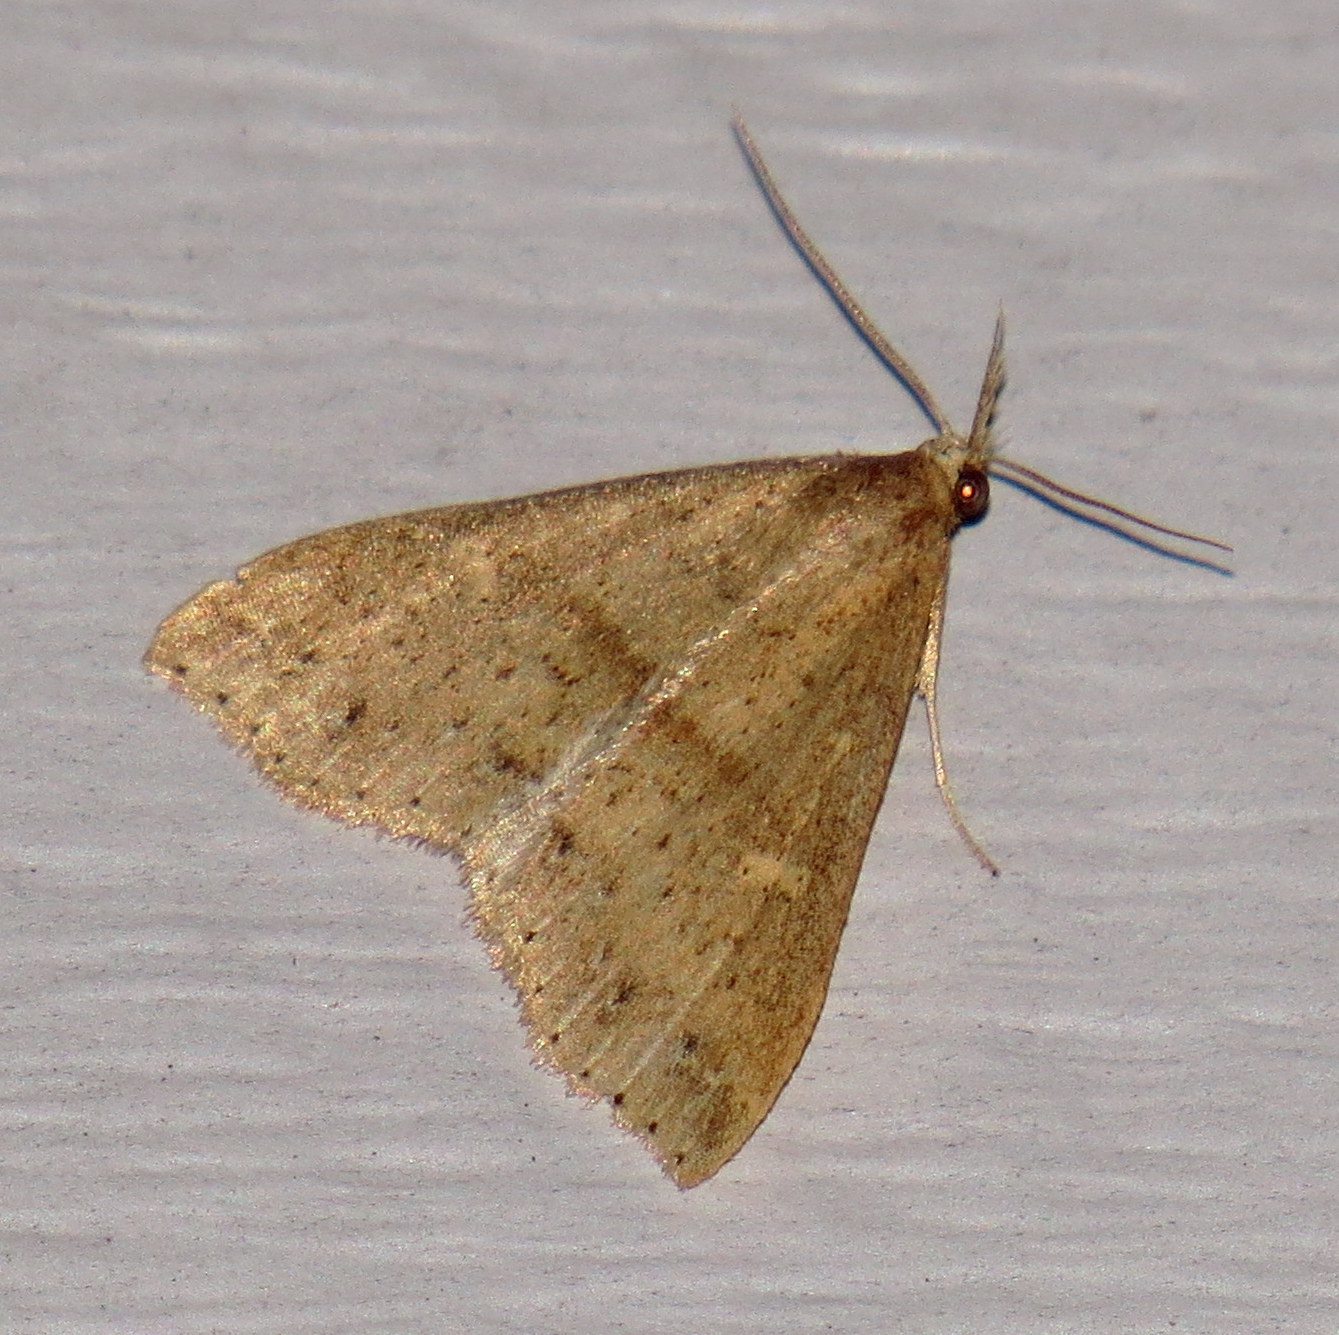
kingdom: Animalia
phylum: Arthropoda
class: Insecta
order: Lepidoptera
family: Erebidae
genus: Renia
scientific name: Renia salusalis
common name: Dotted renia moth
